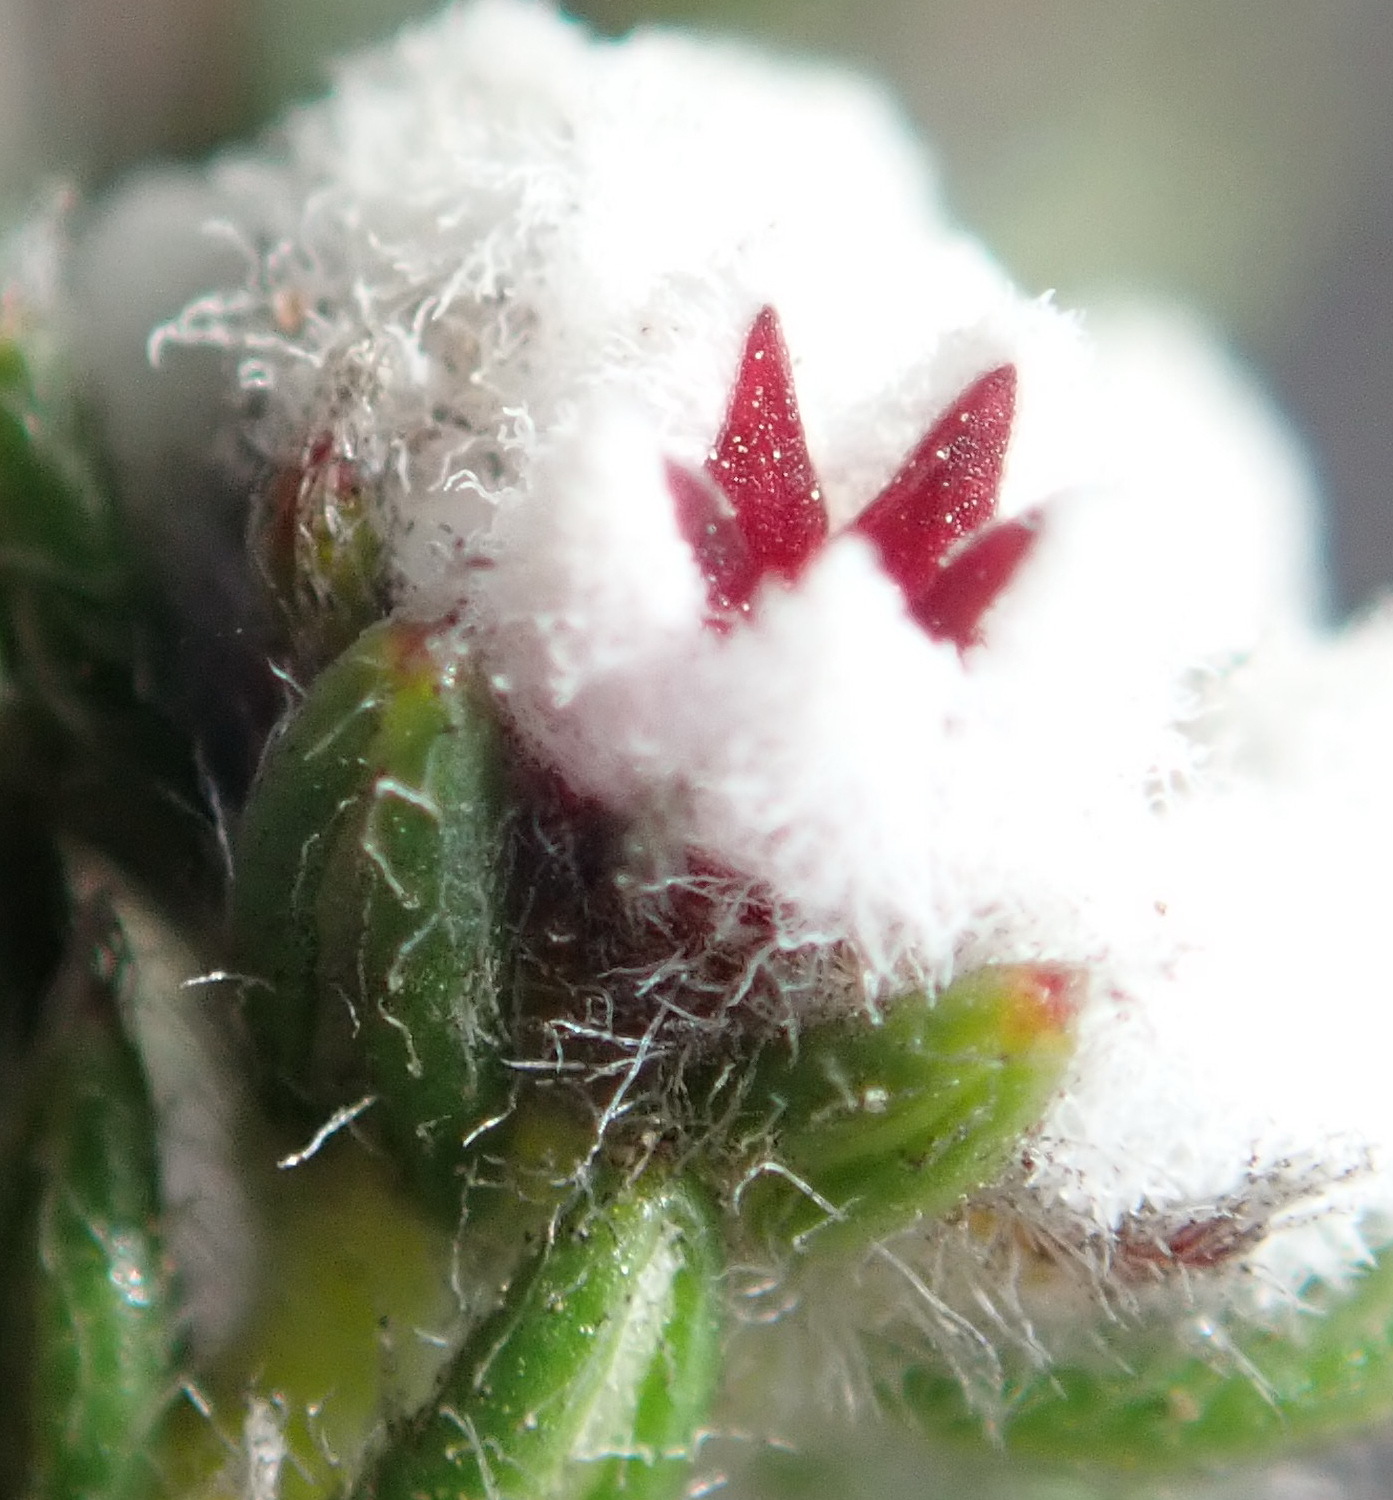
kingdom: Plantae
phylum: Tracheophyta
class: Magnoliopsida
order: Rosales
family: Rhamnaceae
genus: Phylica
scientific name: Phylica purpurea
